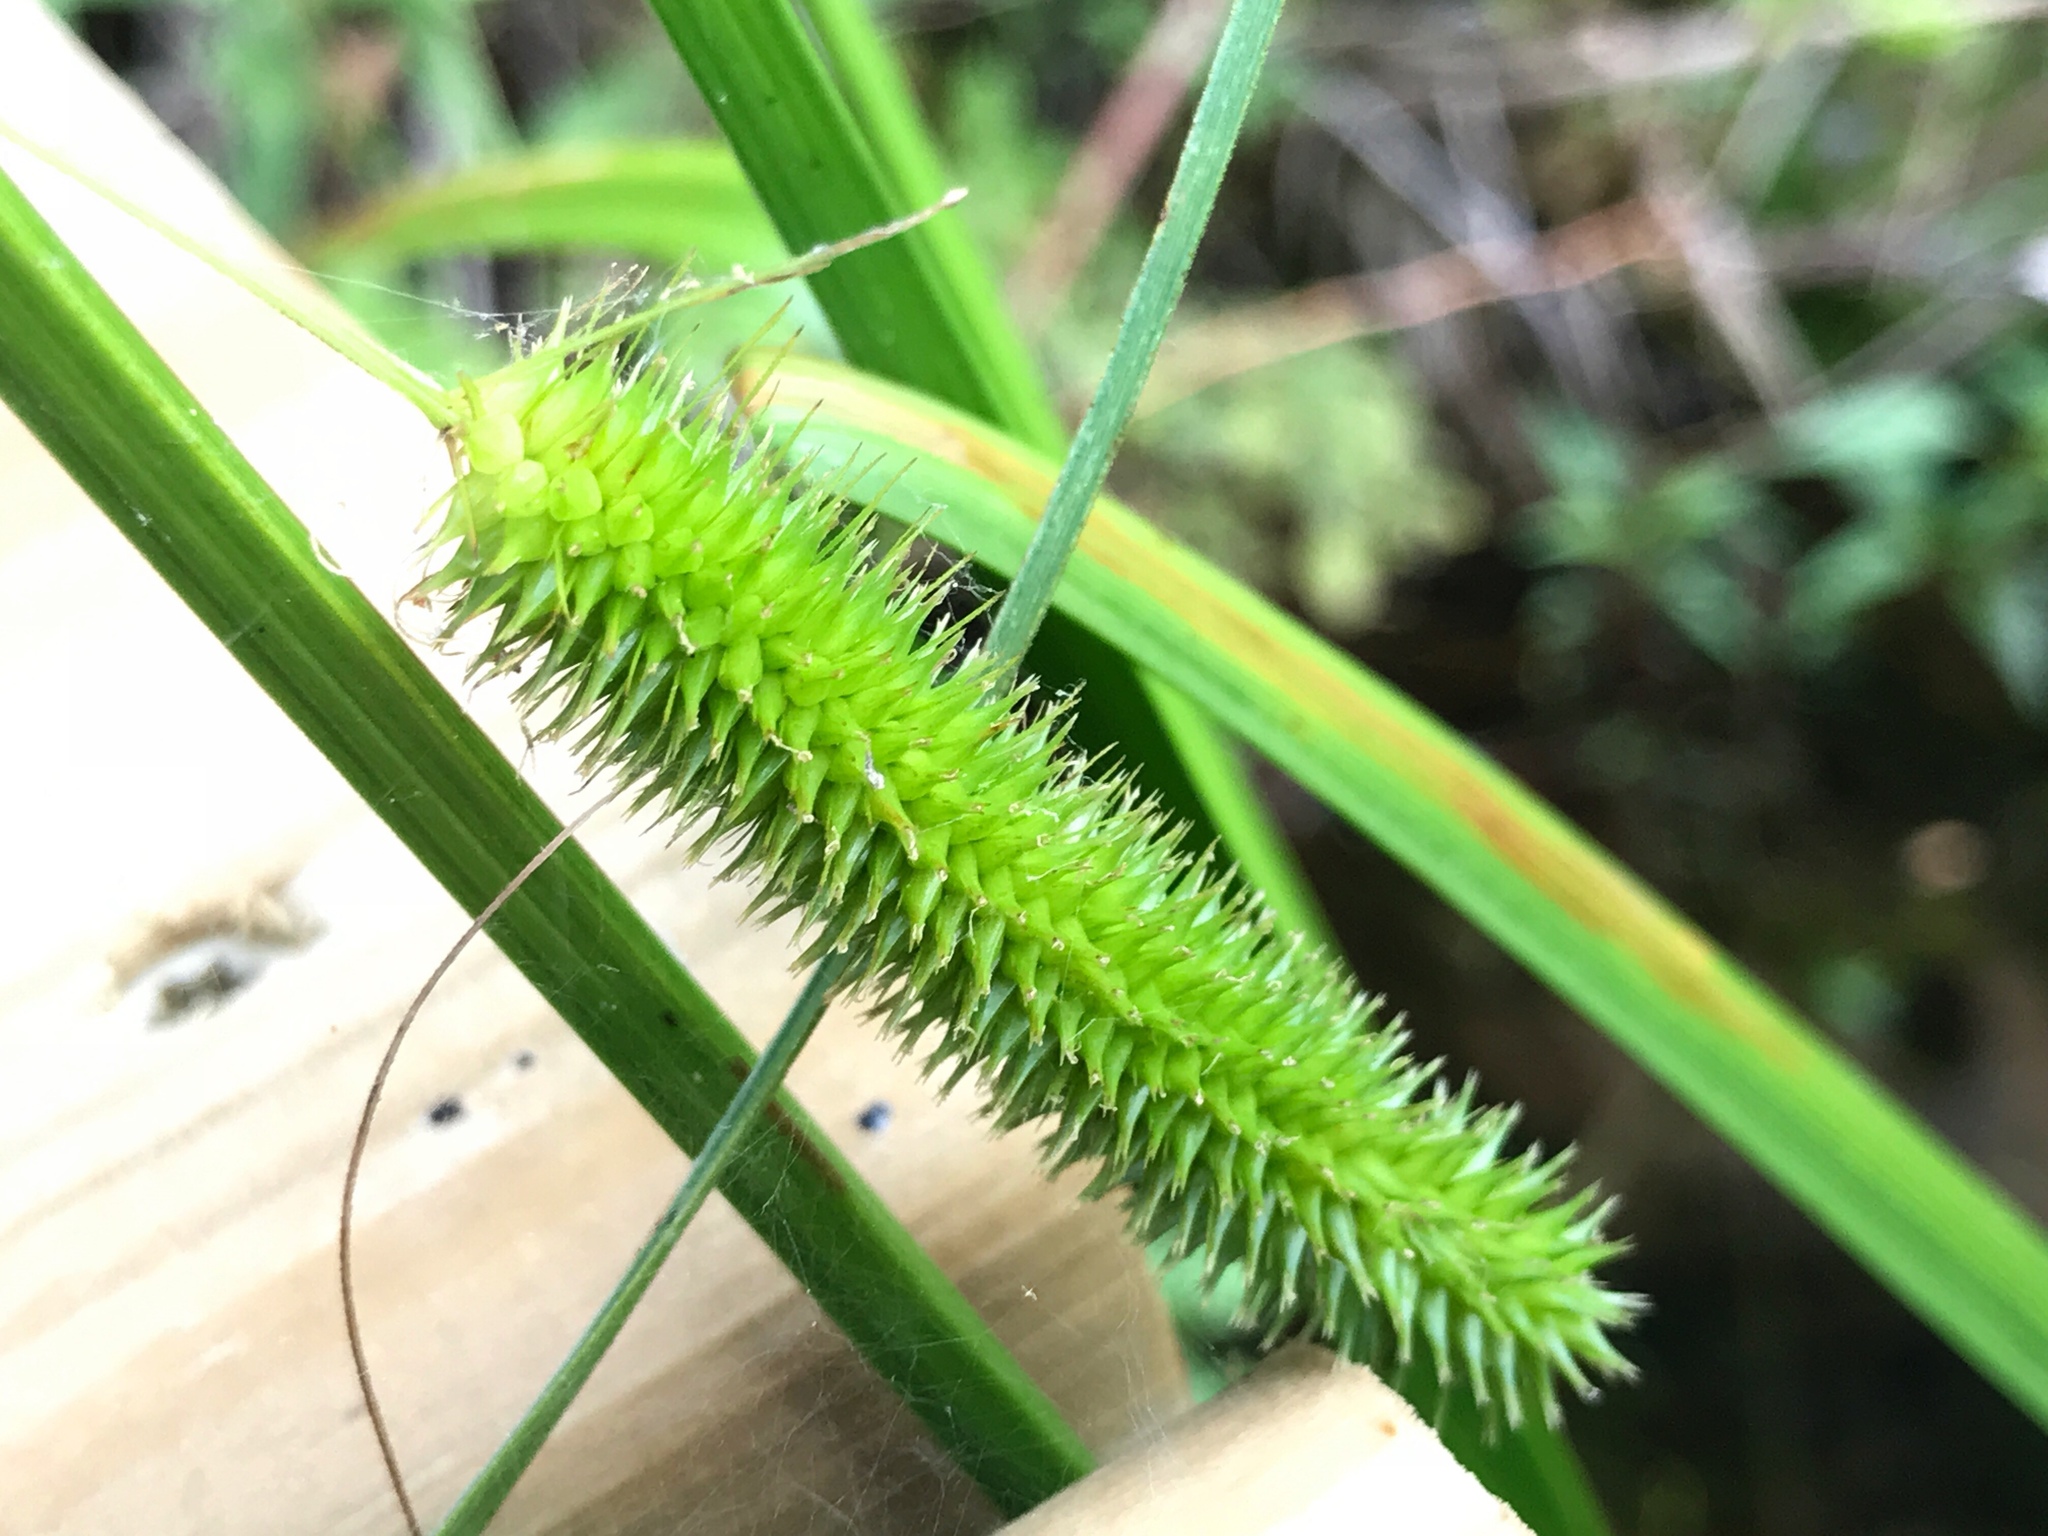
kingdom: Plantae
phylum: Tracheophyta
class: Liliopsida
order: Poales
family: Cyperaceae
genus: Carex
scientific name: Carex comosa
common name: Bristly sedge
